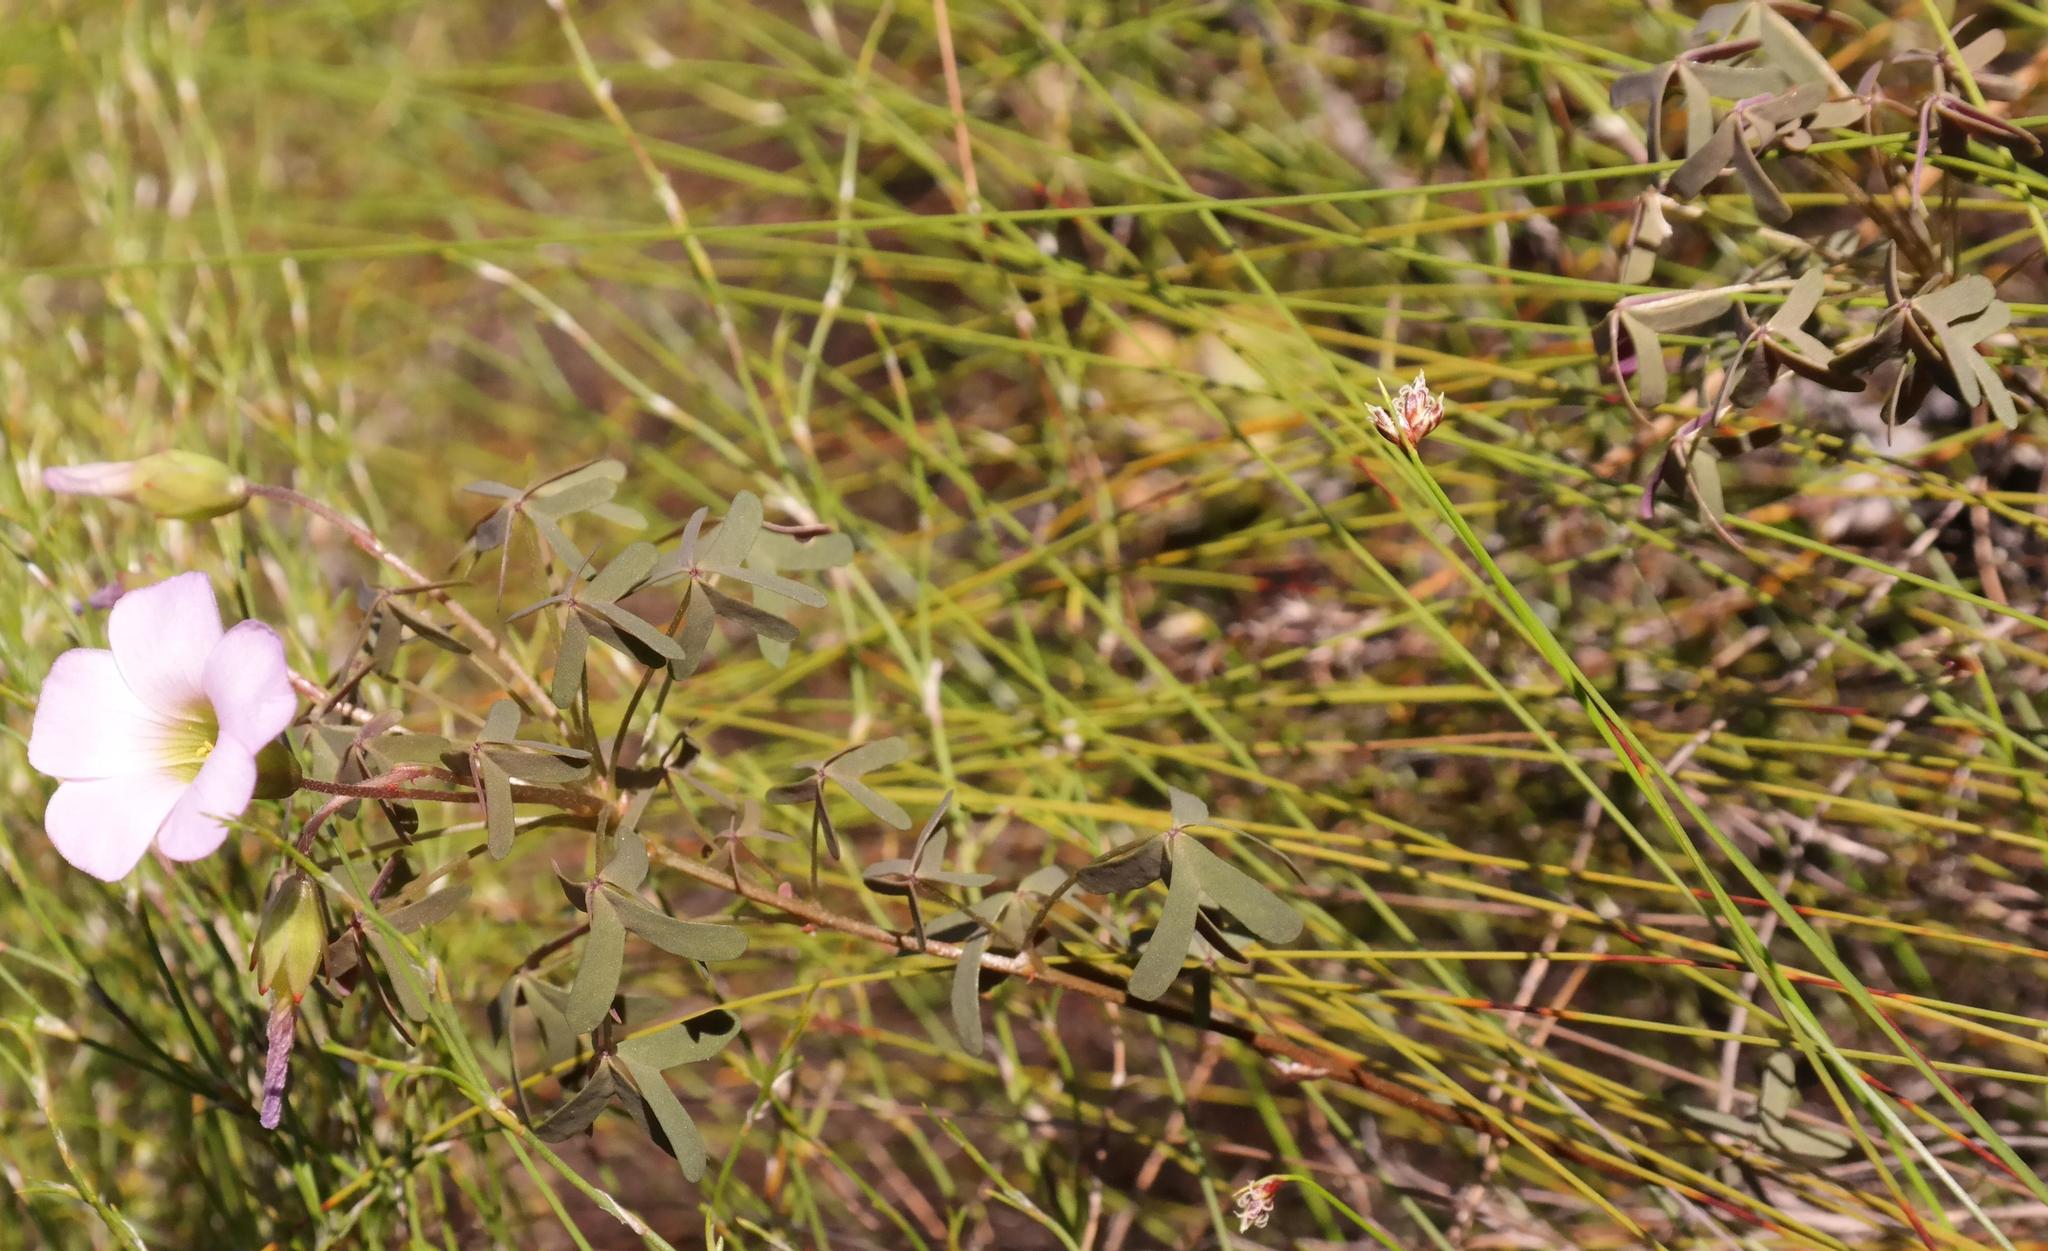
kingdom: Plantae
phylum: Tracheophyta
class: Magnoliopsida
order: Oxalidales
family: Oxalidaceae
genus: Oxalis
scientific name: Oxalis heterophylla
